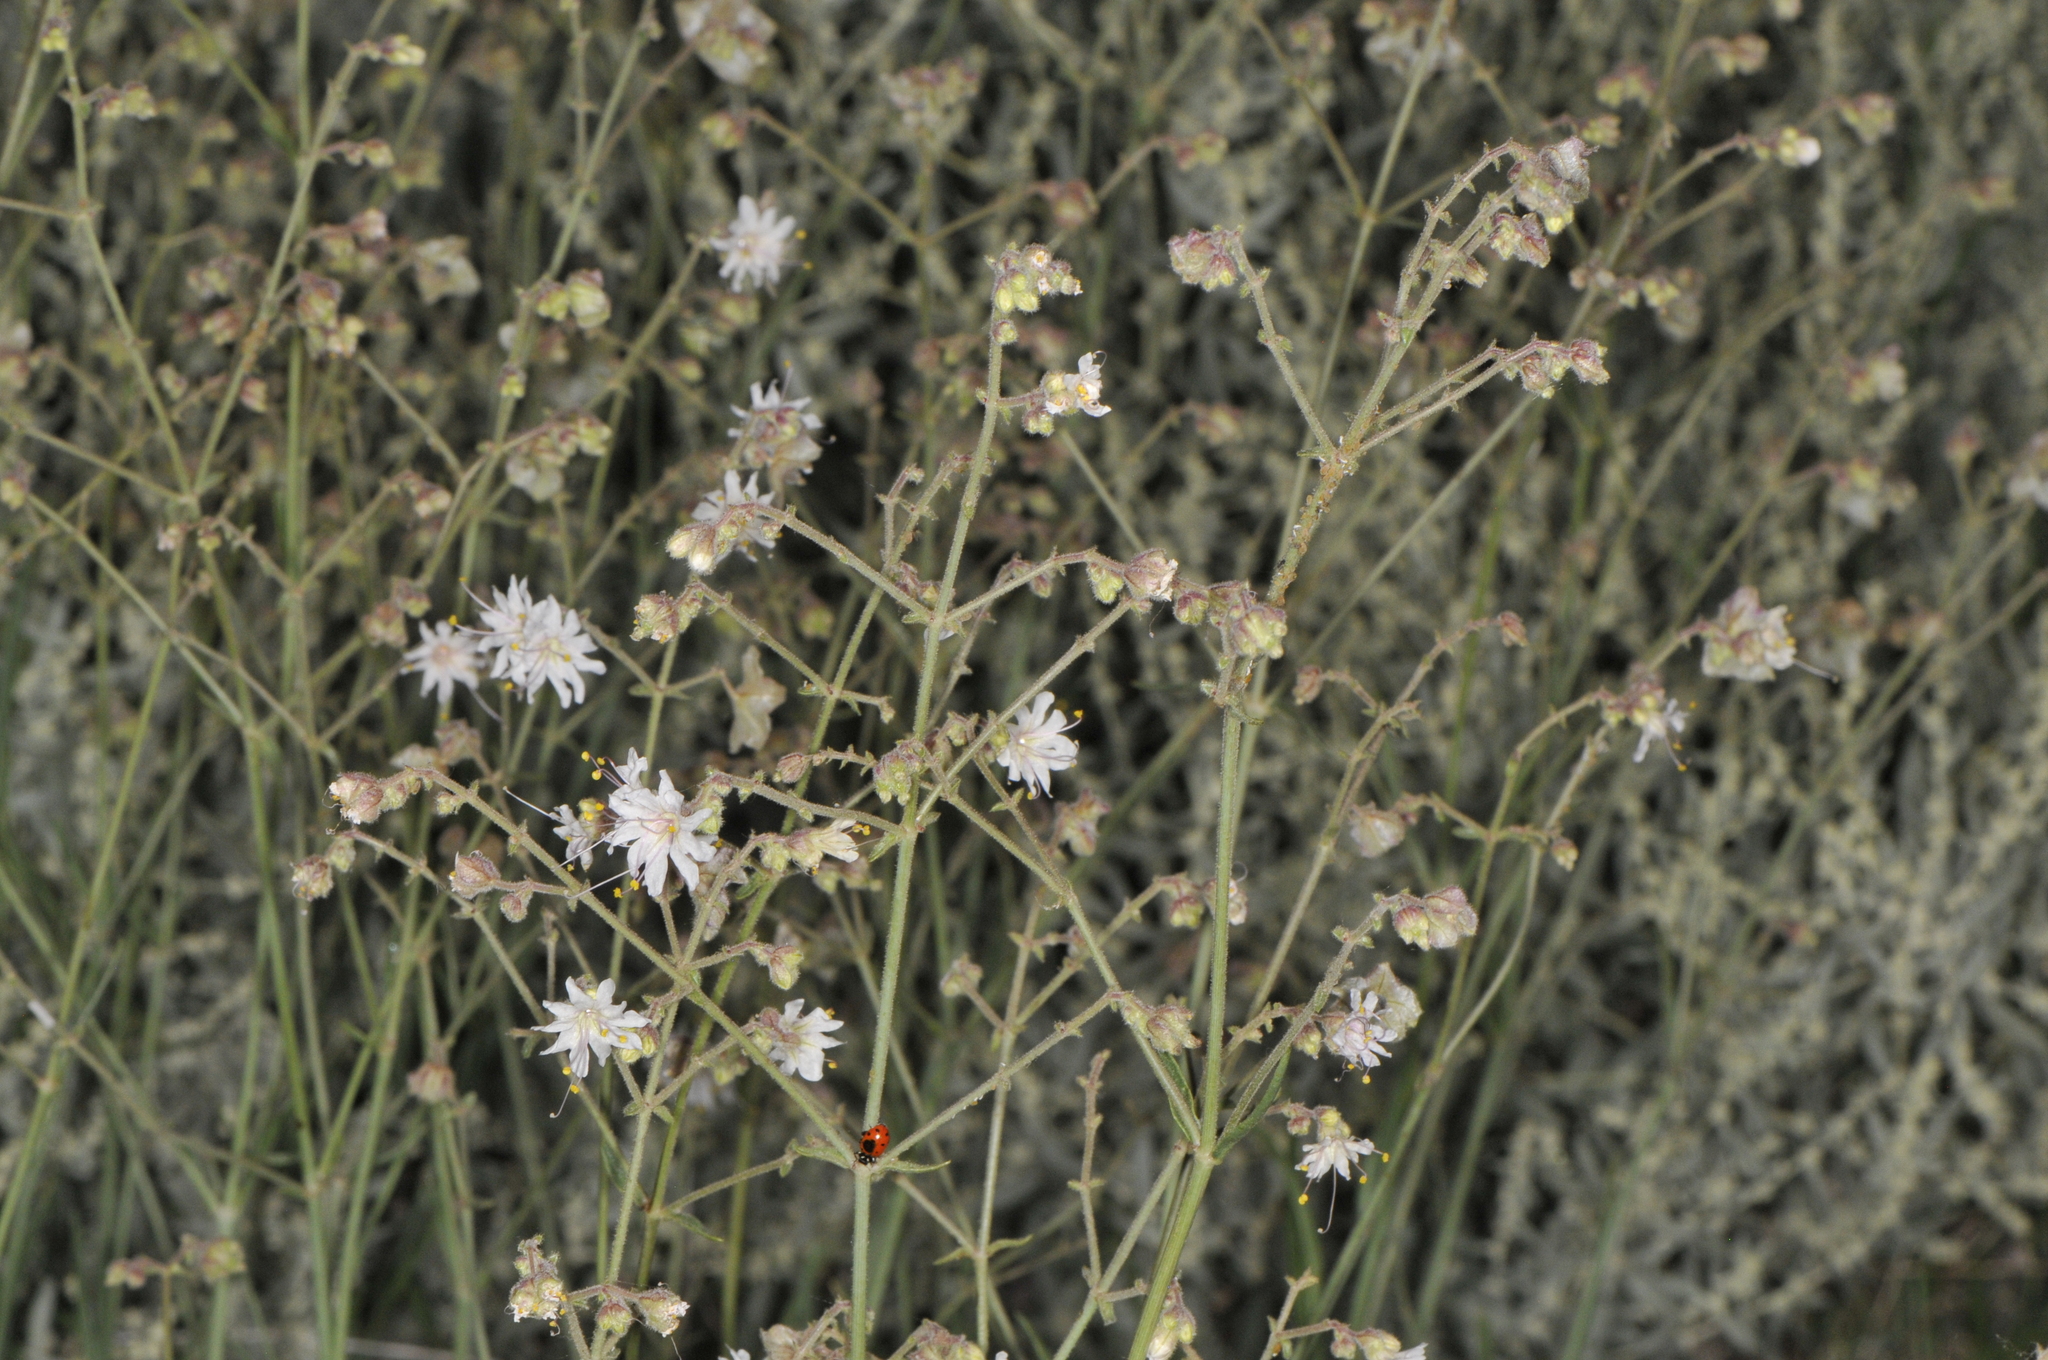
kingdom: Plantae
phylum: Tracheophyta
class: Magnoliopsida
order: Caryophyllales
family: Nyctaginaceae
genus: Mirabilis
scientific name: Mirabilis linearis
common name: Linear-leaved four-o'clock
